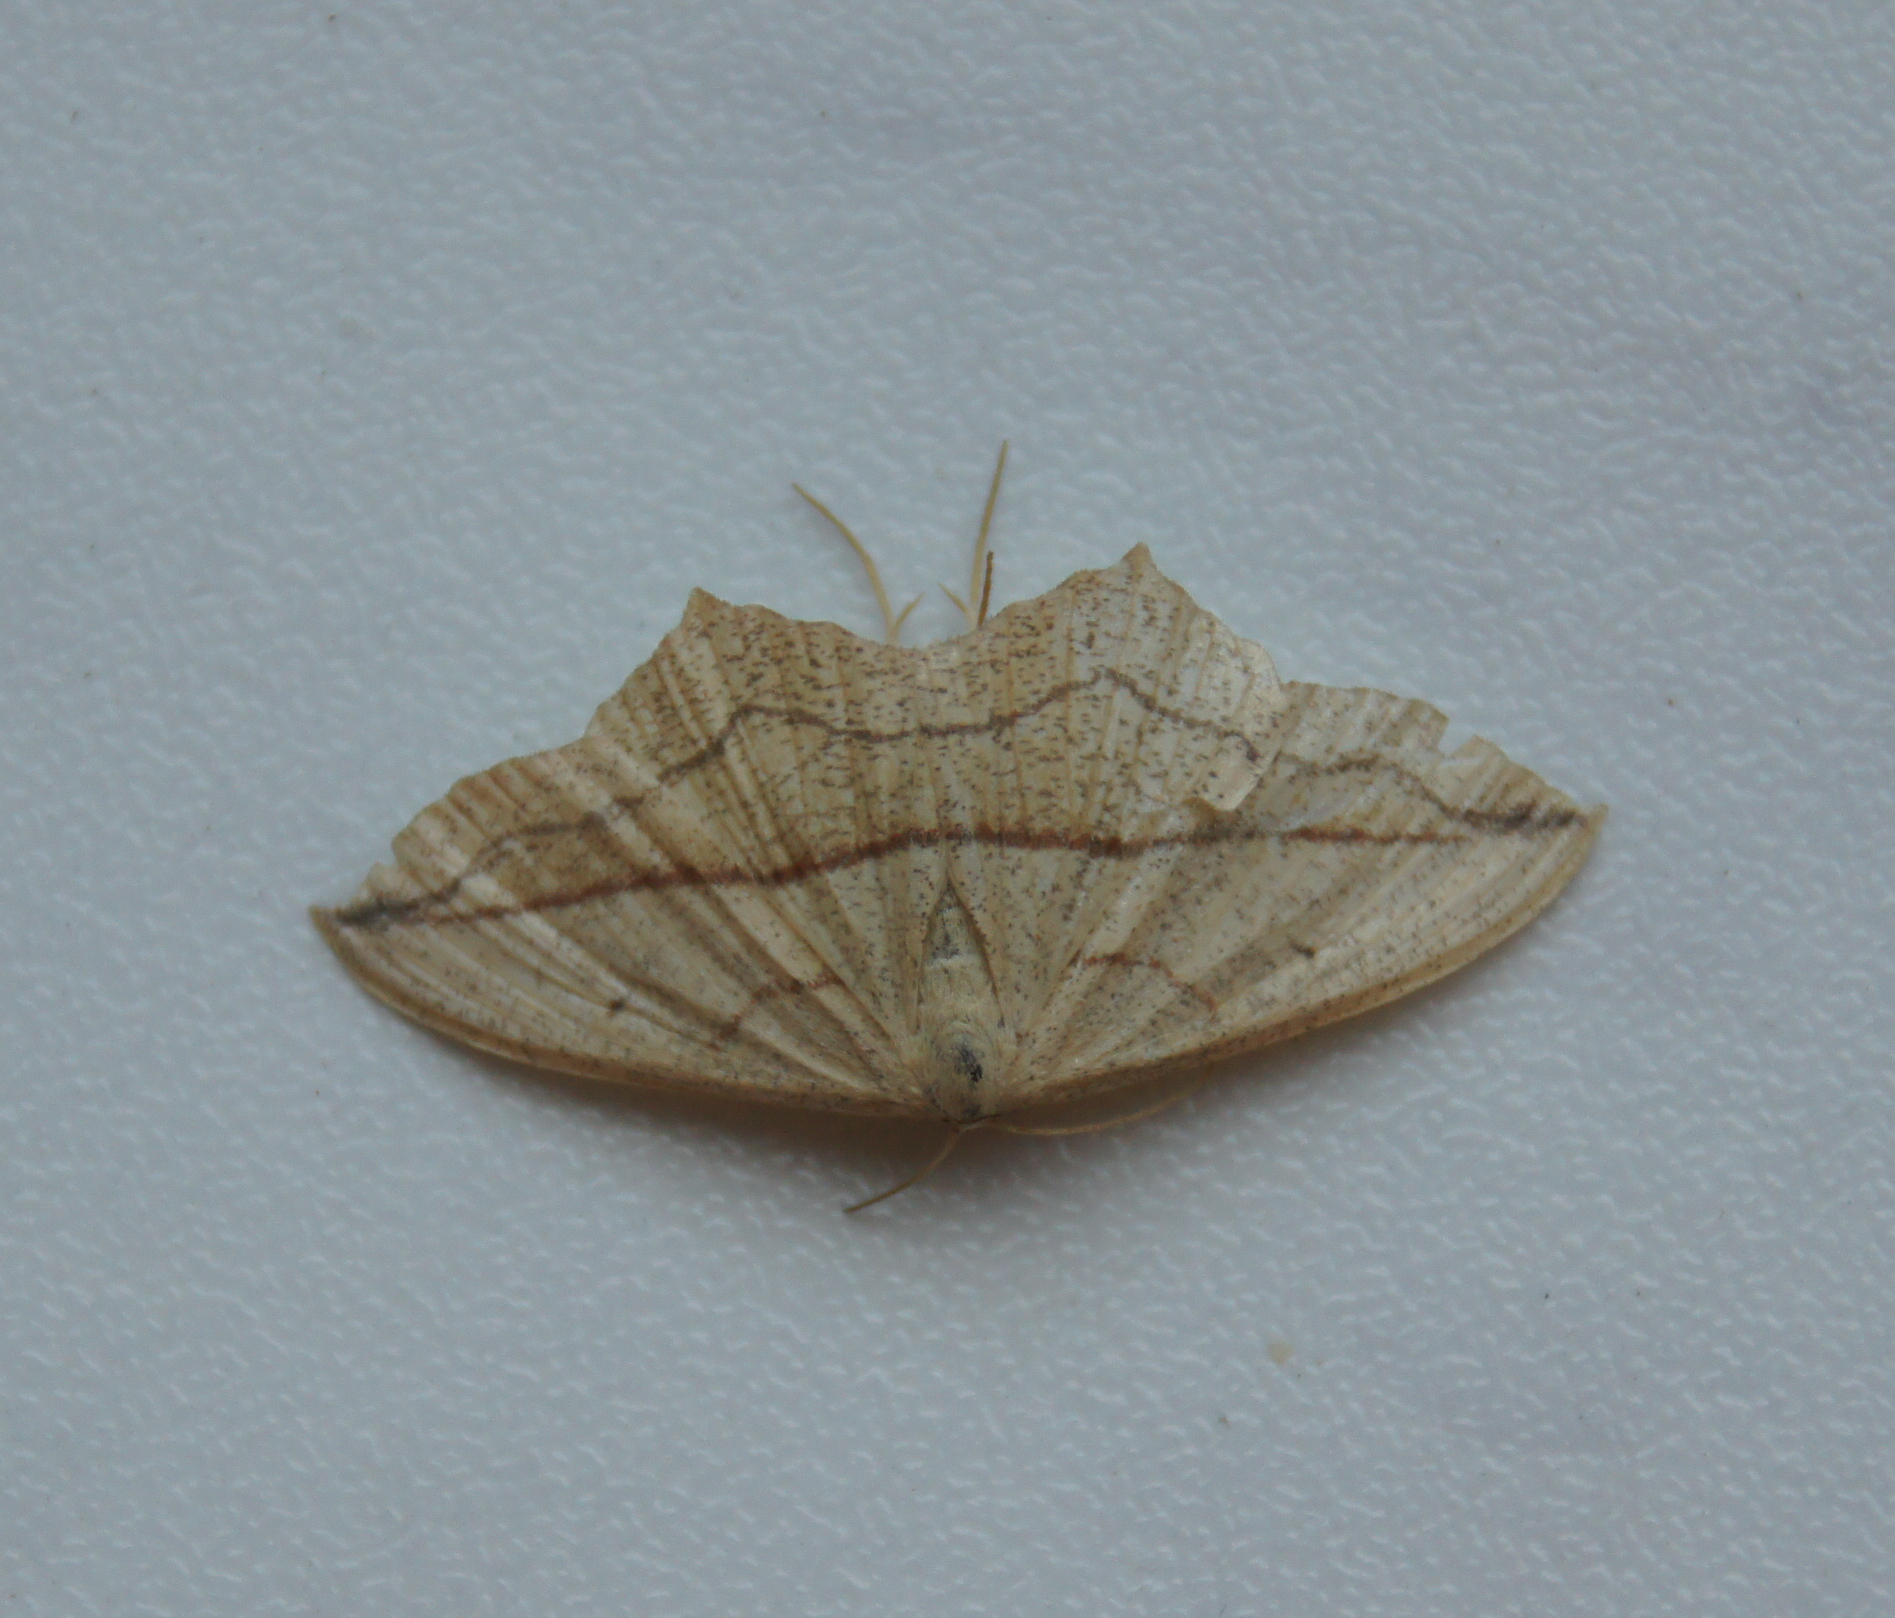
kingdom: Animalia
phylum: Arthropoda
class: Insecta
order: Lepidoptera
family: Geometridae
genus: Timandra
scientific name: Timandra comae
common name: Blood-vein
